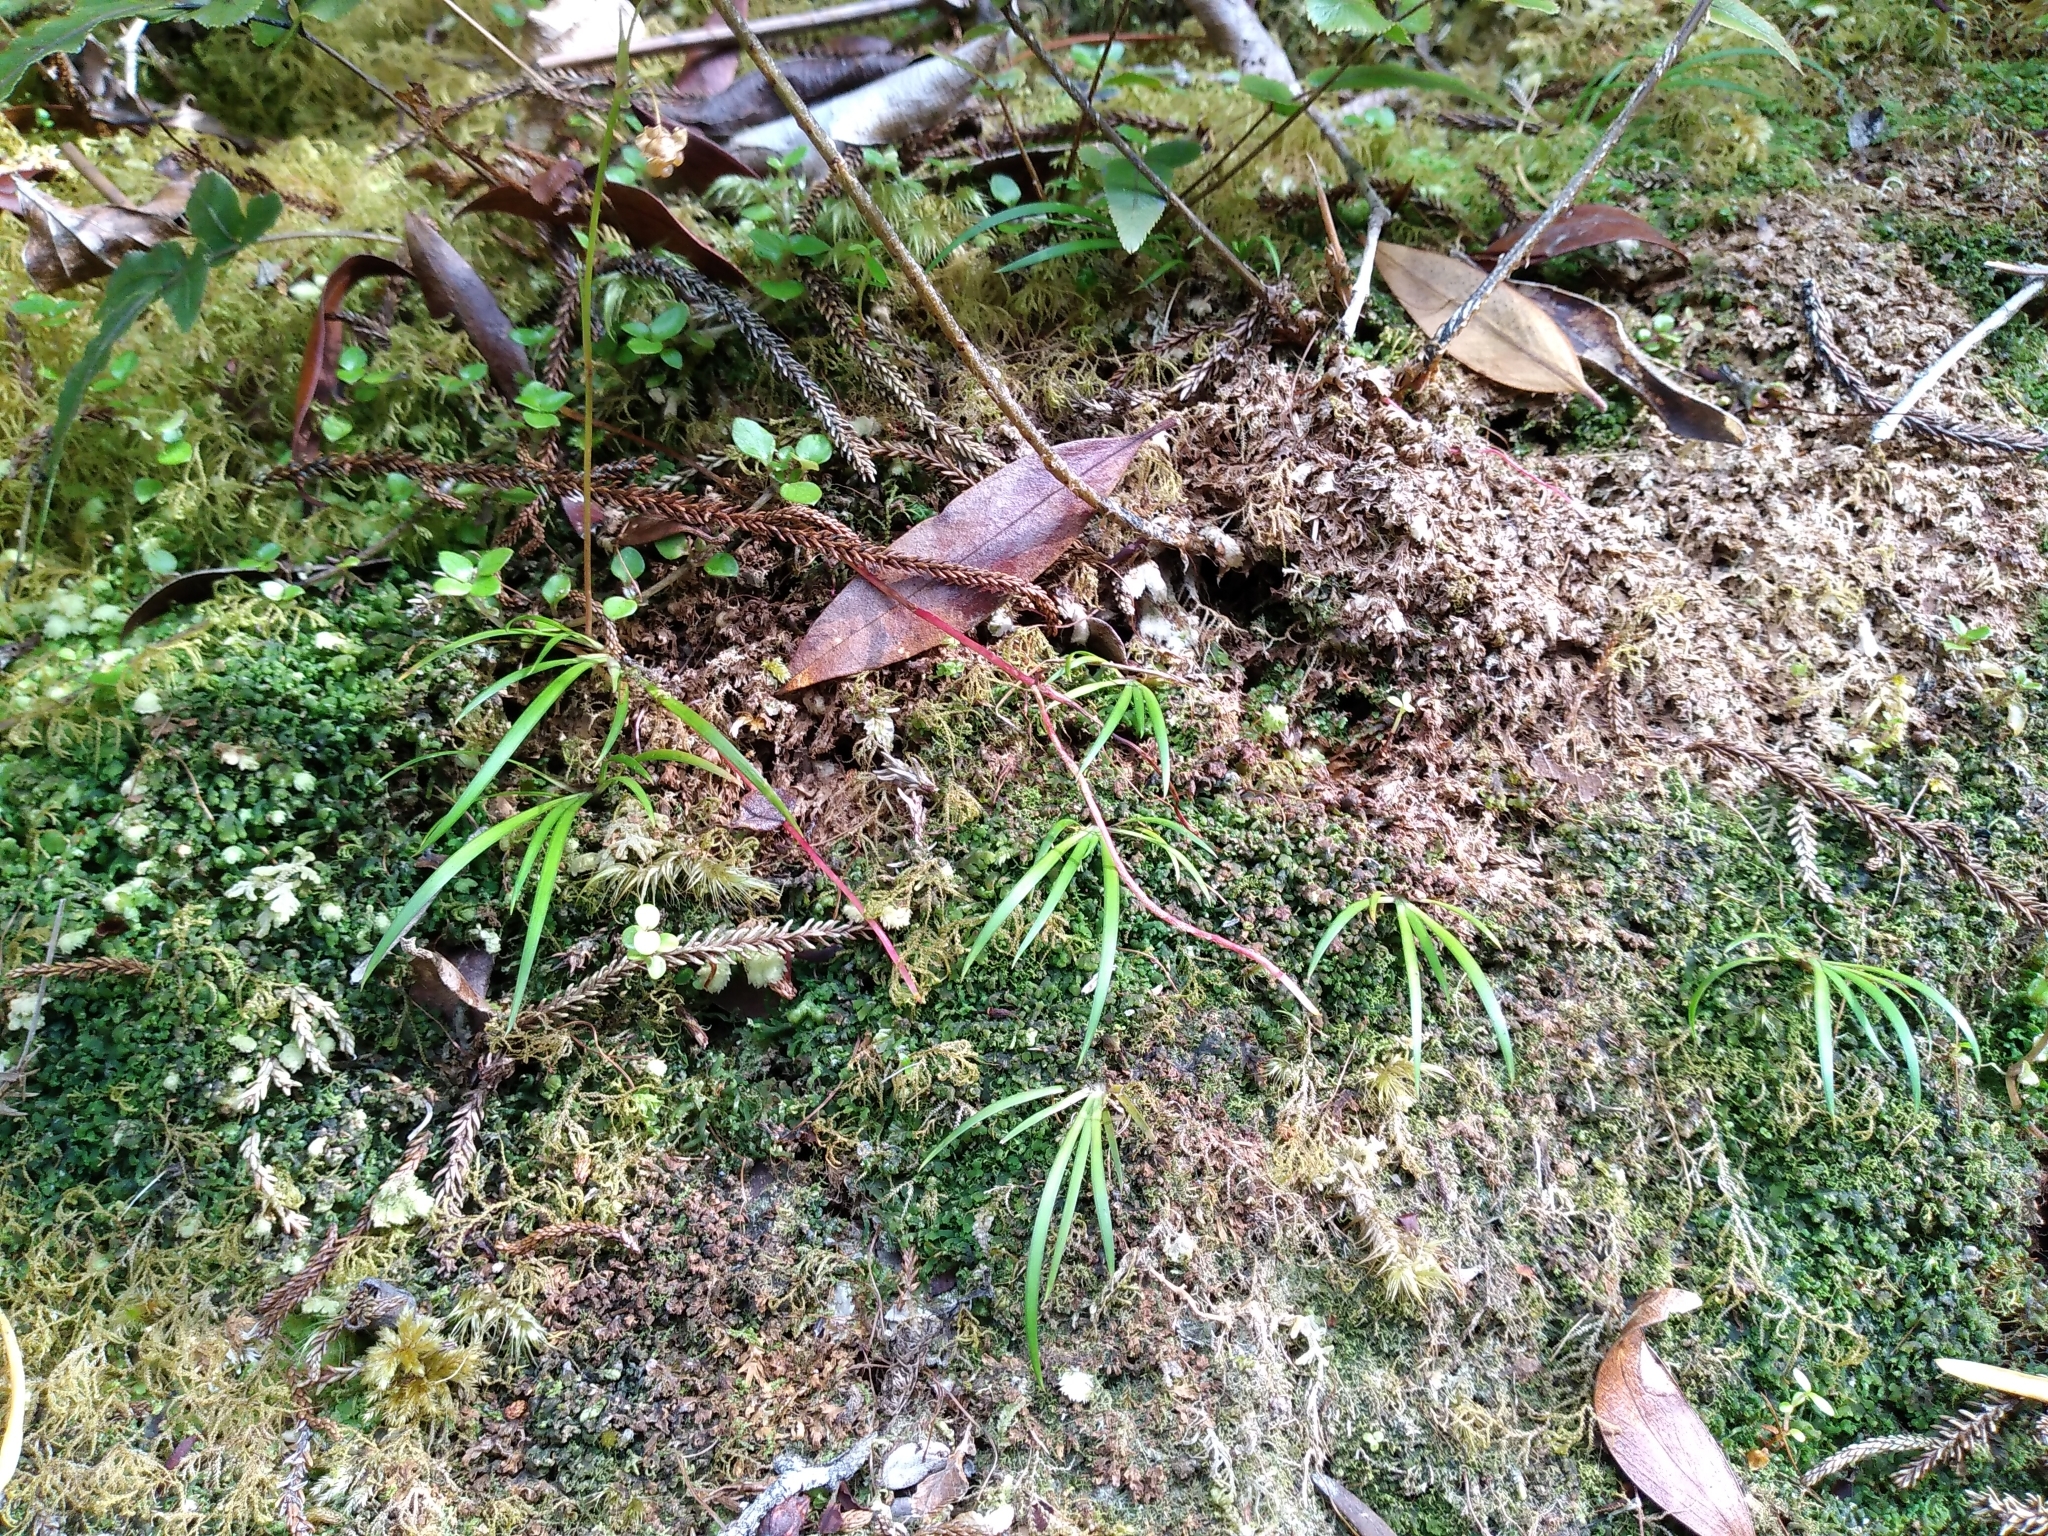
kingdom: Plantae
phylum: Tracheophyta
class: Liliopsida
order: Asparagales
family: Iridaceae
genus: Libertia
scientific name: Libertia micrantha
